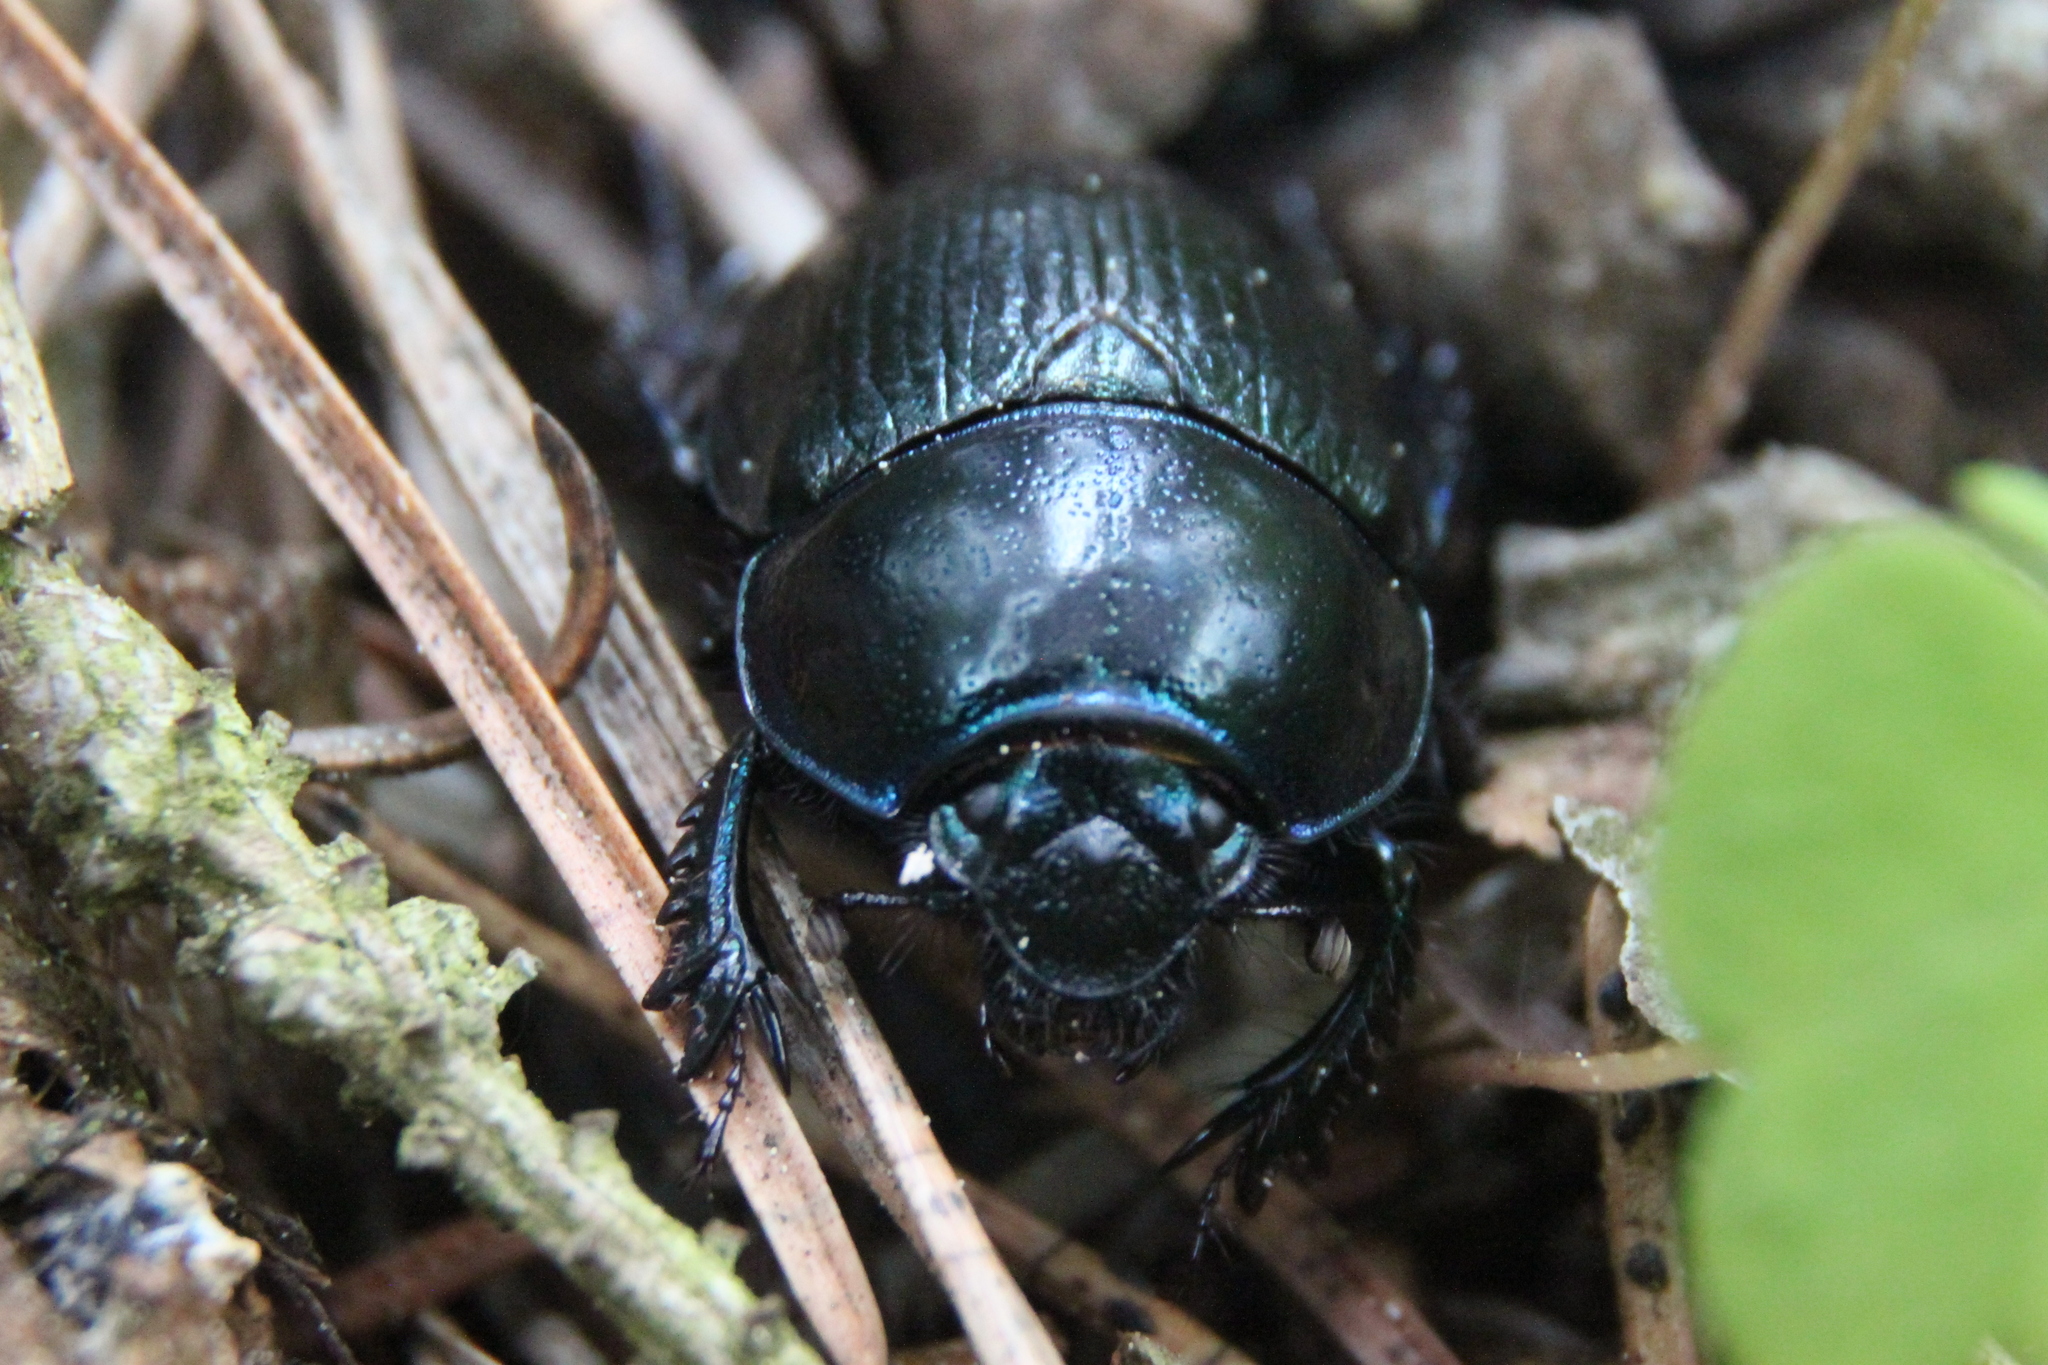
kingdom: Animalia
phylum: Arthropoda
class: Insecta
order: Coleoptera
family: Geotrupidae
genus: Anoplotrupes
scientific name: Anoplotrupes stercorosus
